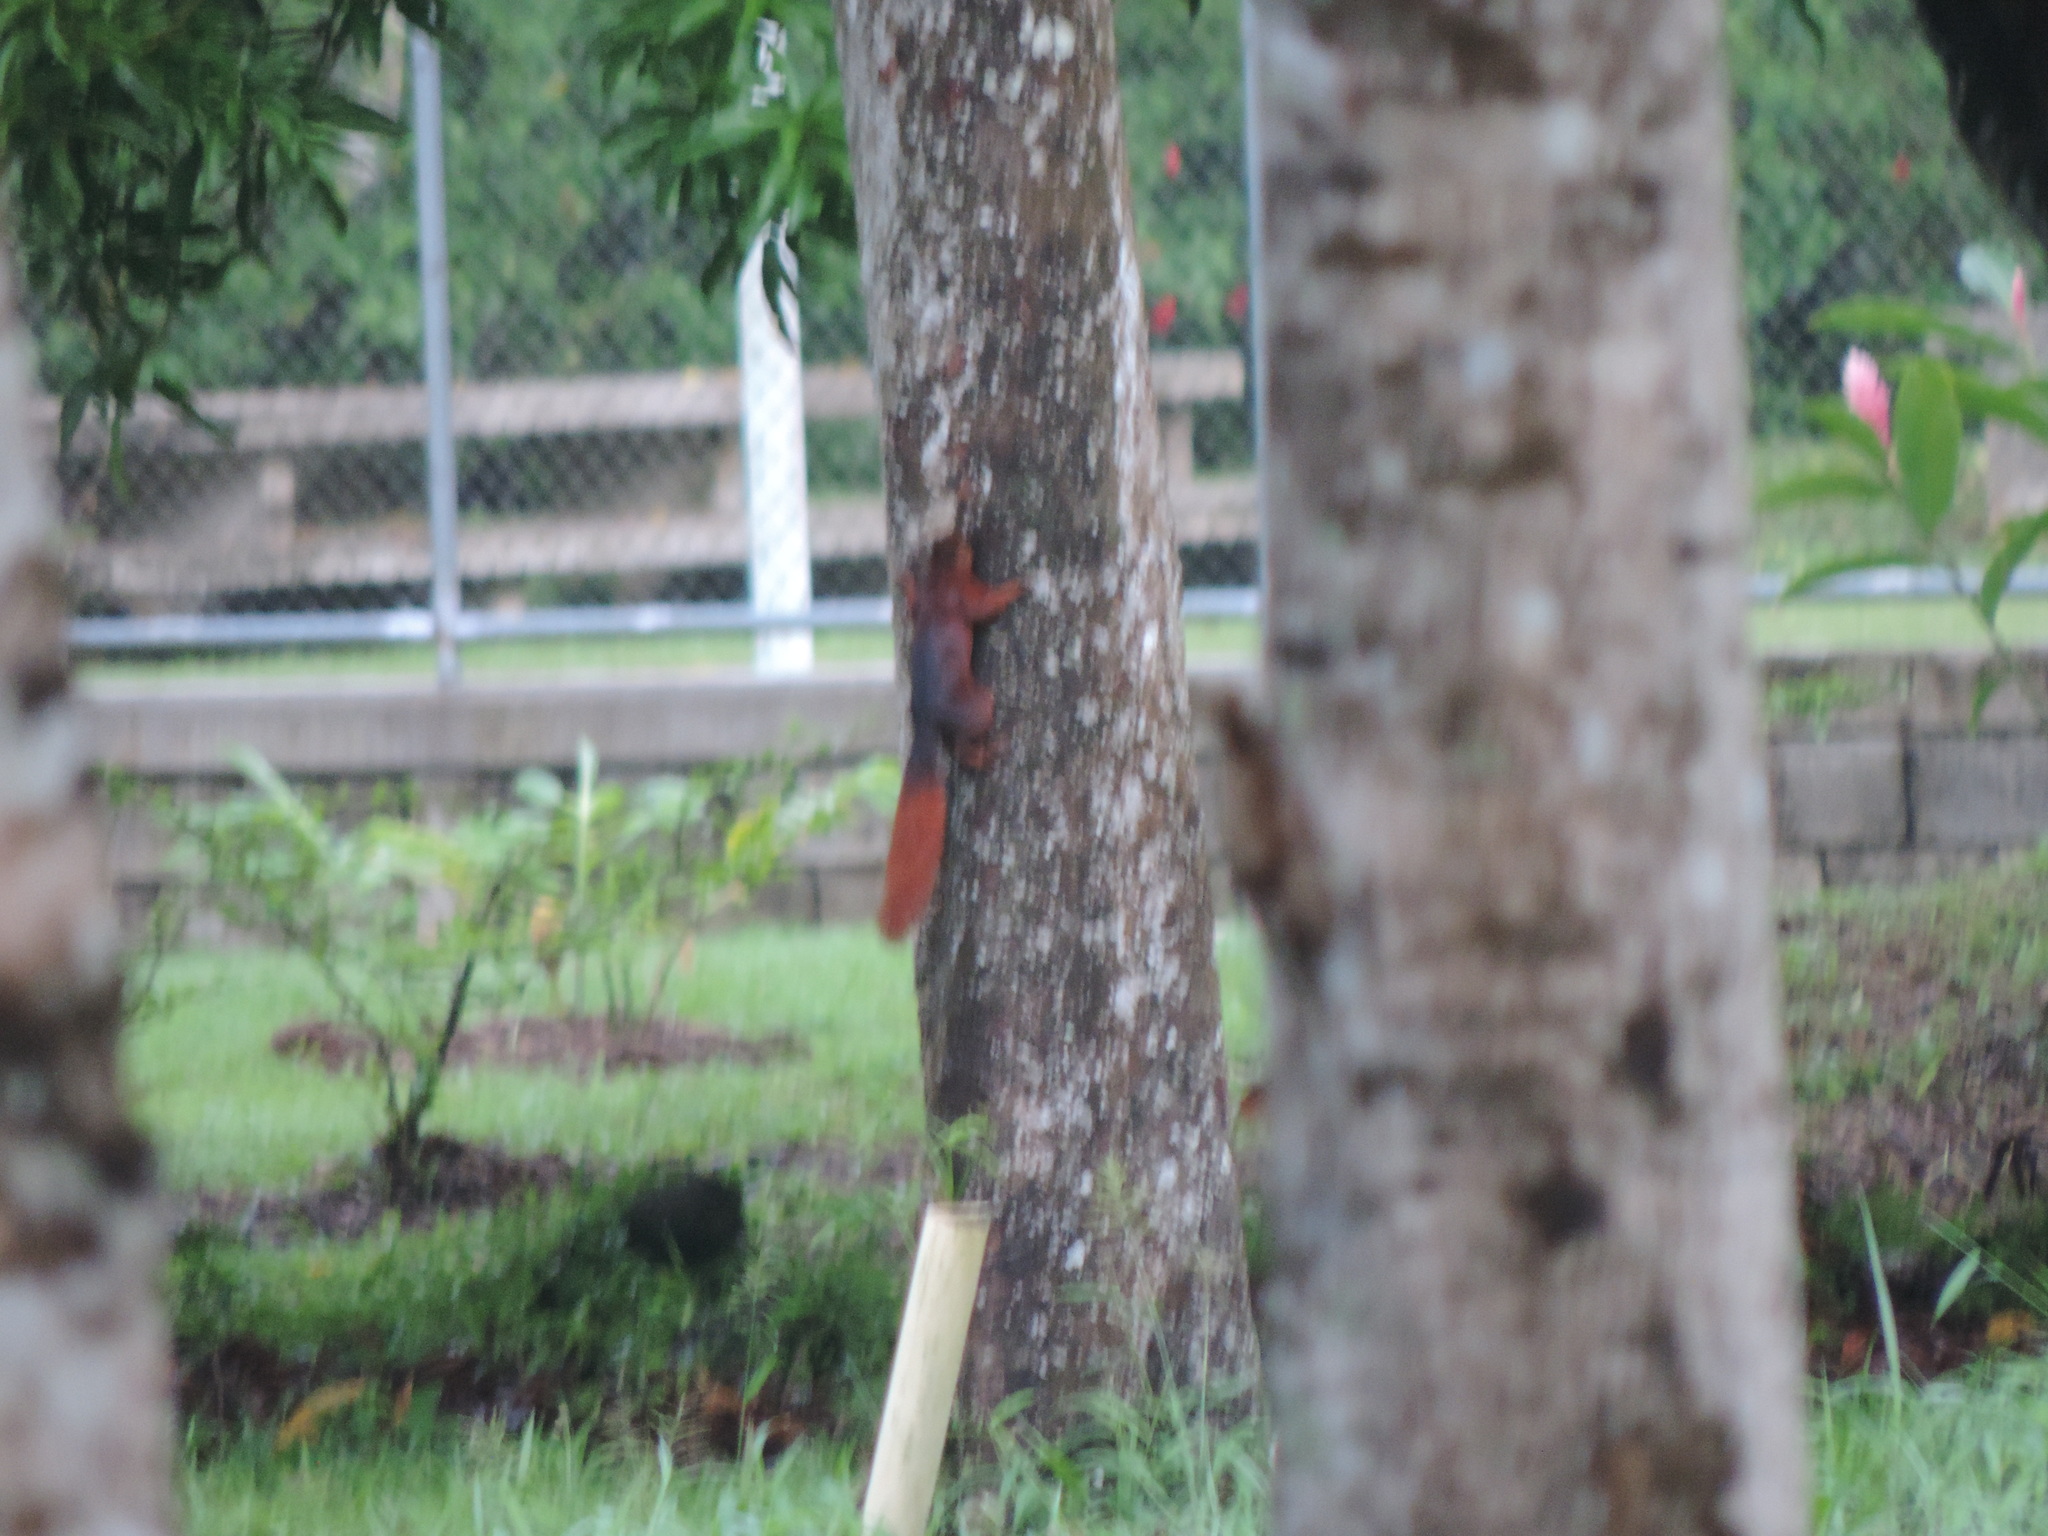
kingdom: Animalia
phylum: Chordata
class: Mammalia
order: Rodentia
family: Sciuridae
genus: Sciurus
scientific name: Sciurus granatensis
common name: Red-tailed squirrel
